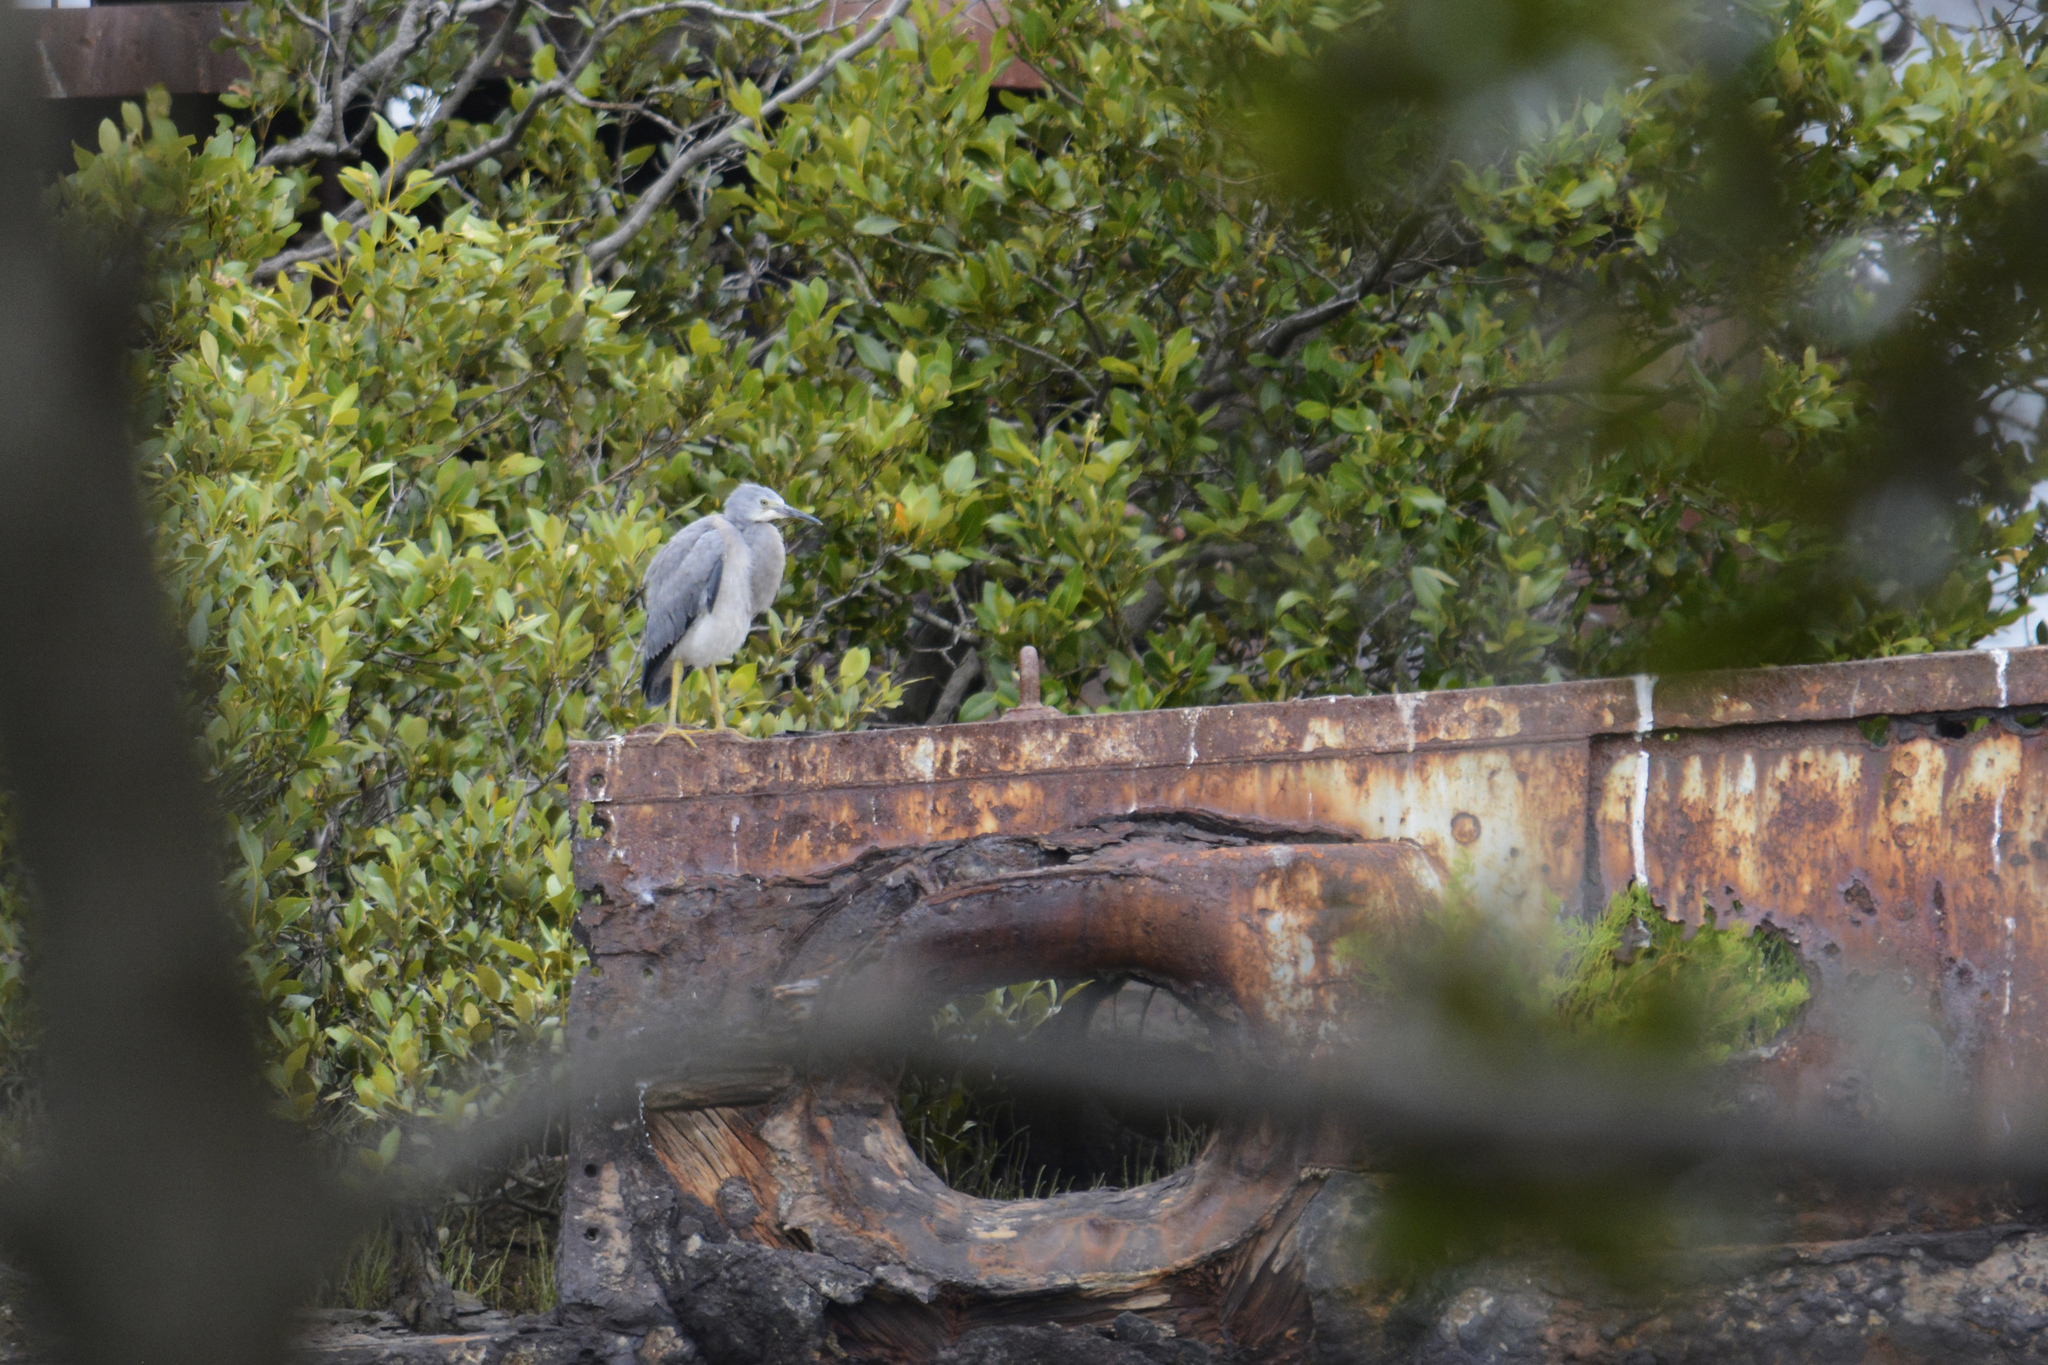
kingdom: Animalia
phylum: Chordata
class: Aves
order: Pelecaniformes
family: Ardeidae
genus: Egretta
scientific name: Egretta novaehollandiae
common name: White-faced heron
